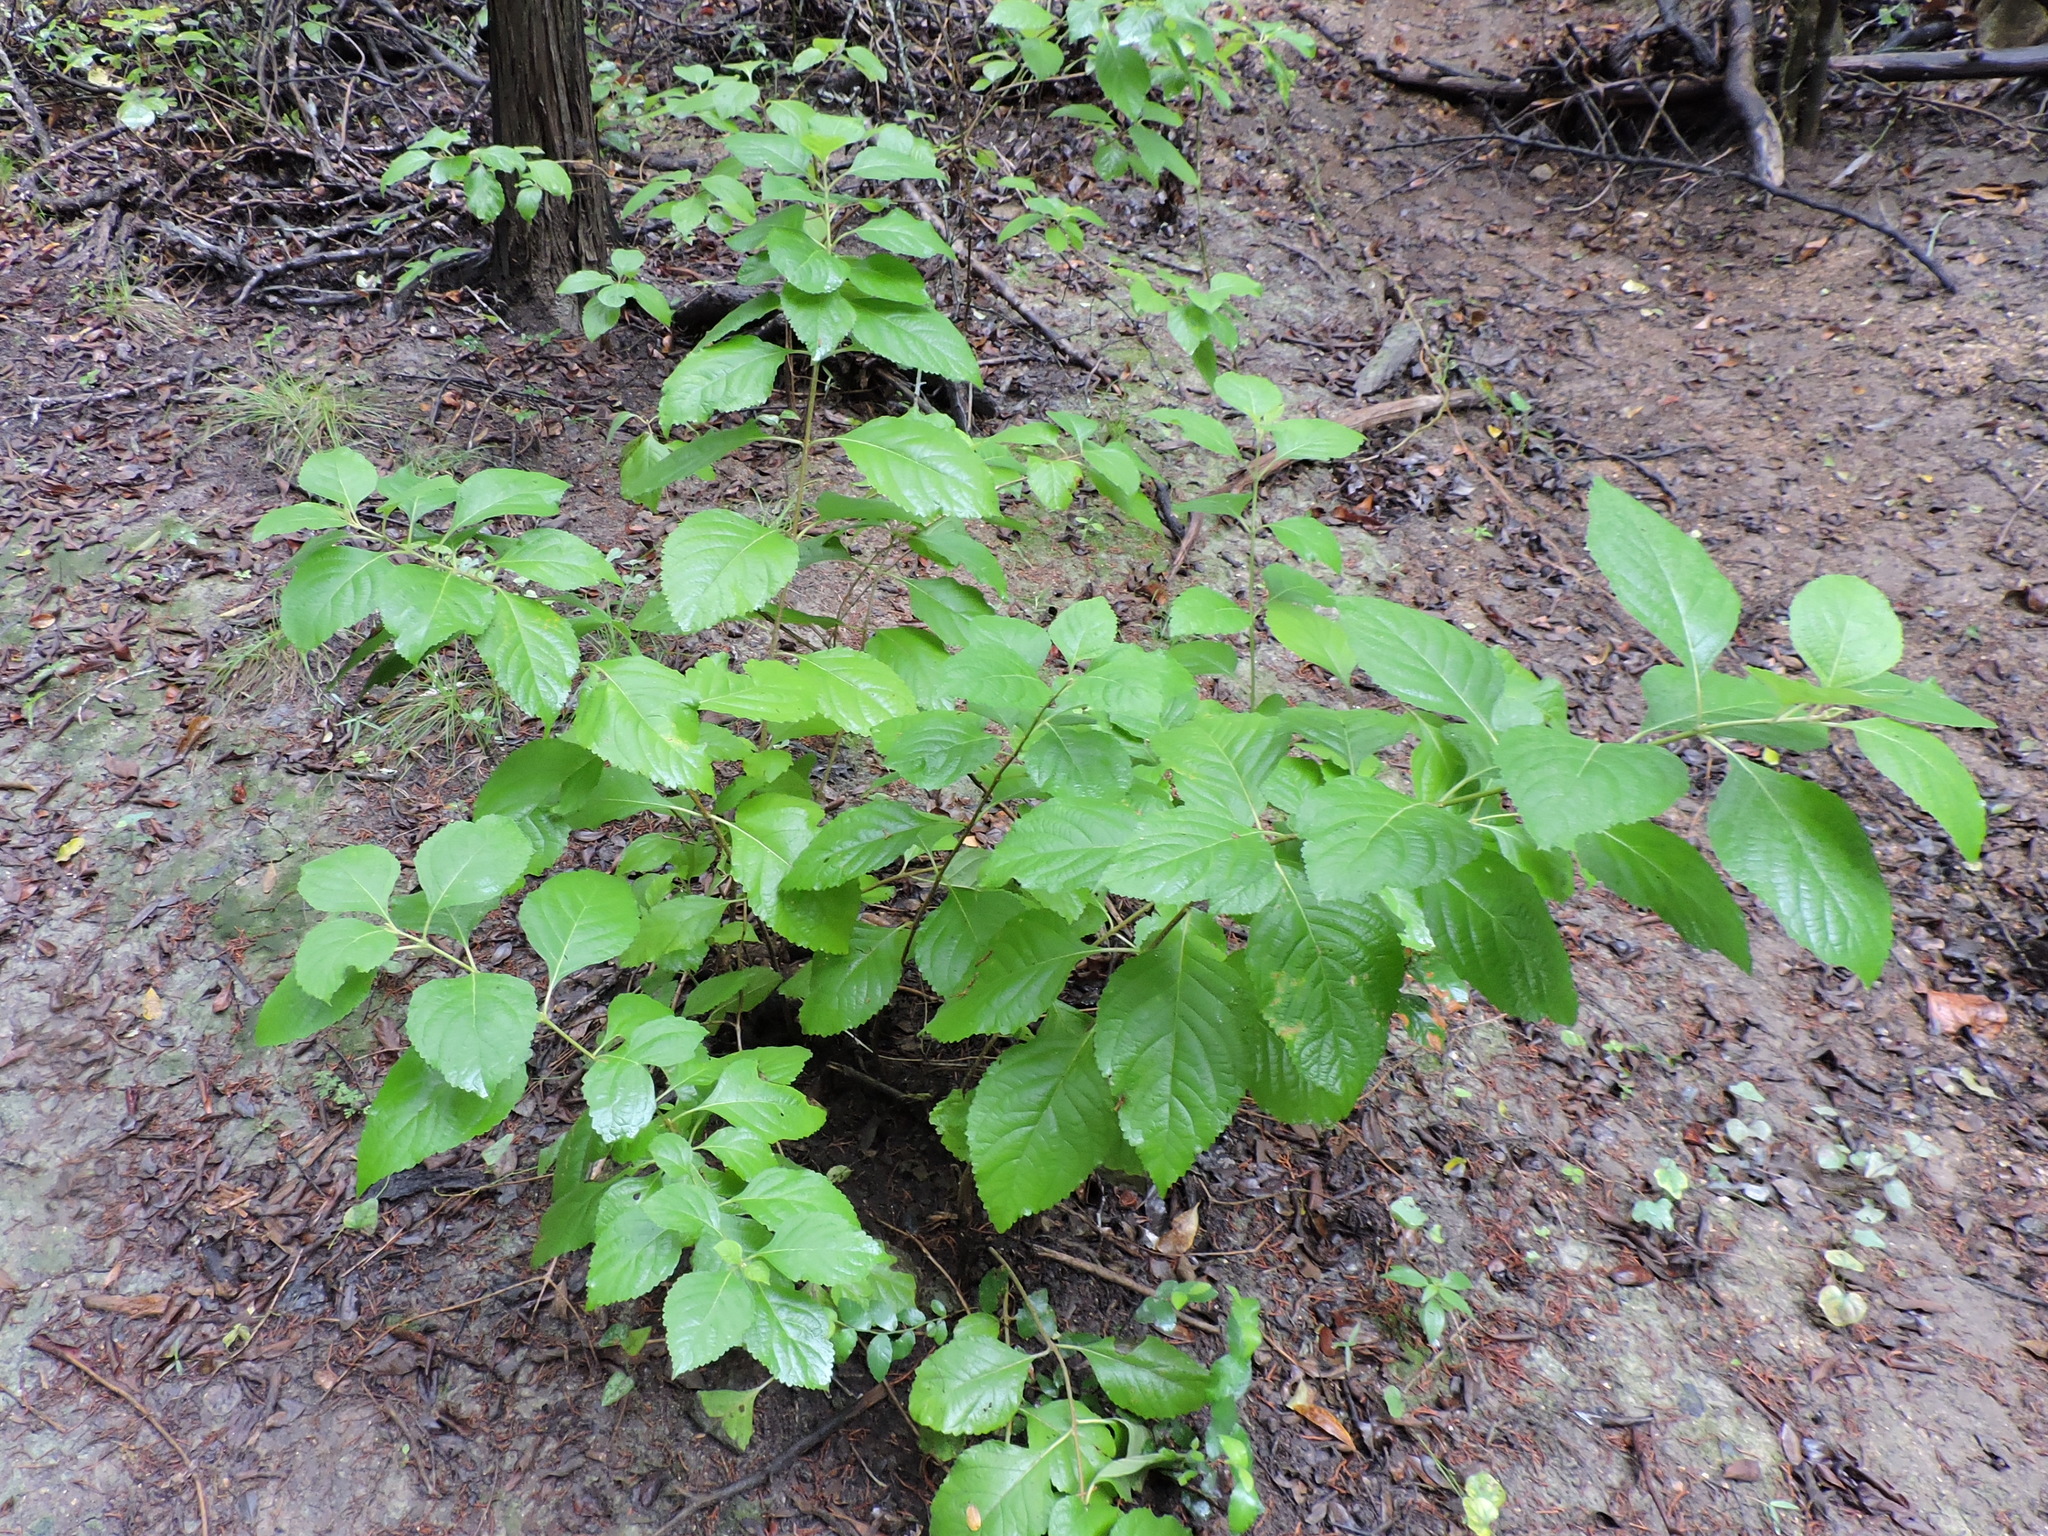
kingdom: Plantae
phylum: Tracheophyta
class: Magnoliopsida
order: Lamiales
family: Lamiaceae
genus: Callicarpa
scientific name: Callicarpa americana
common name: American beautyberry
